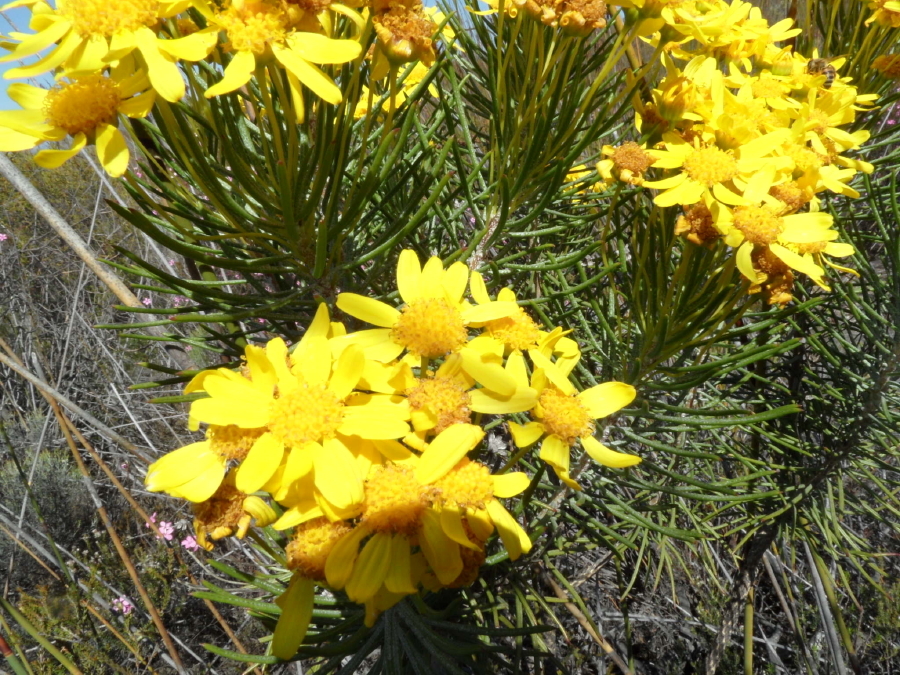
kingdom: Plantae
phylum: Tracheophyta
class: Magnoliopsida
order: Asterales
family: Asteraceae
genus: Euryops
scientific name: Euryops rehmannii
